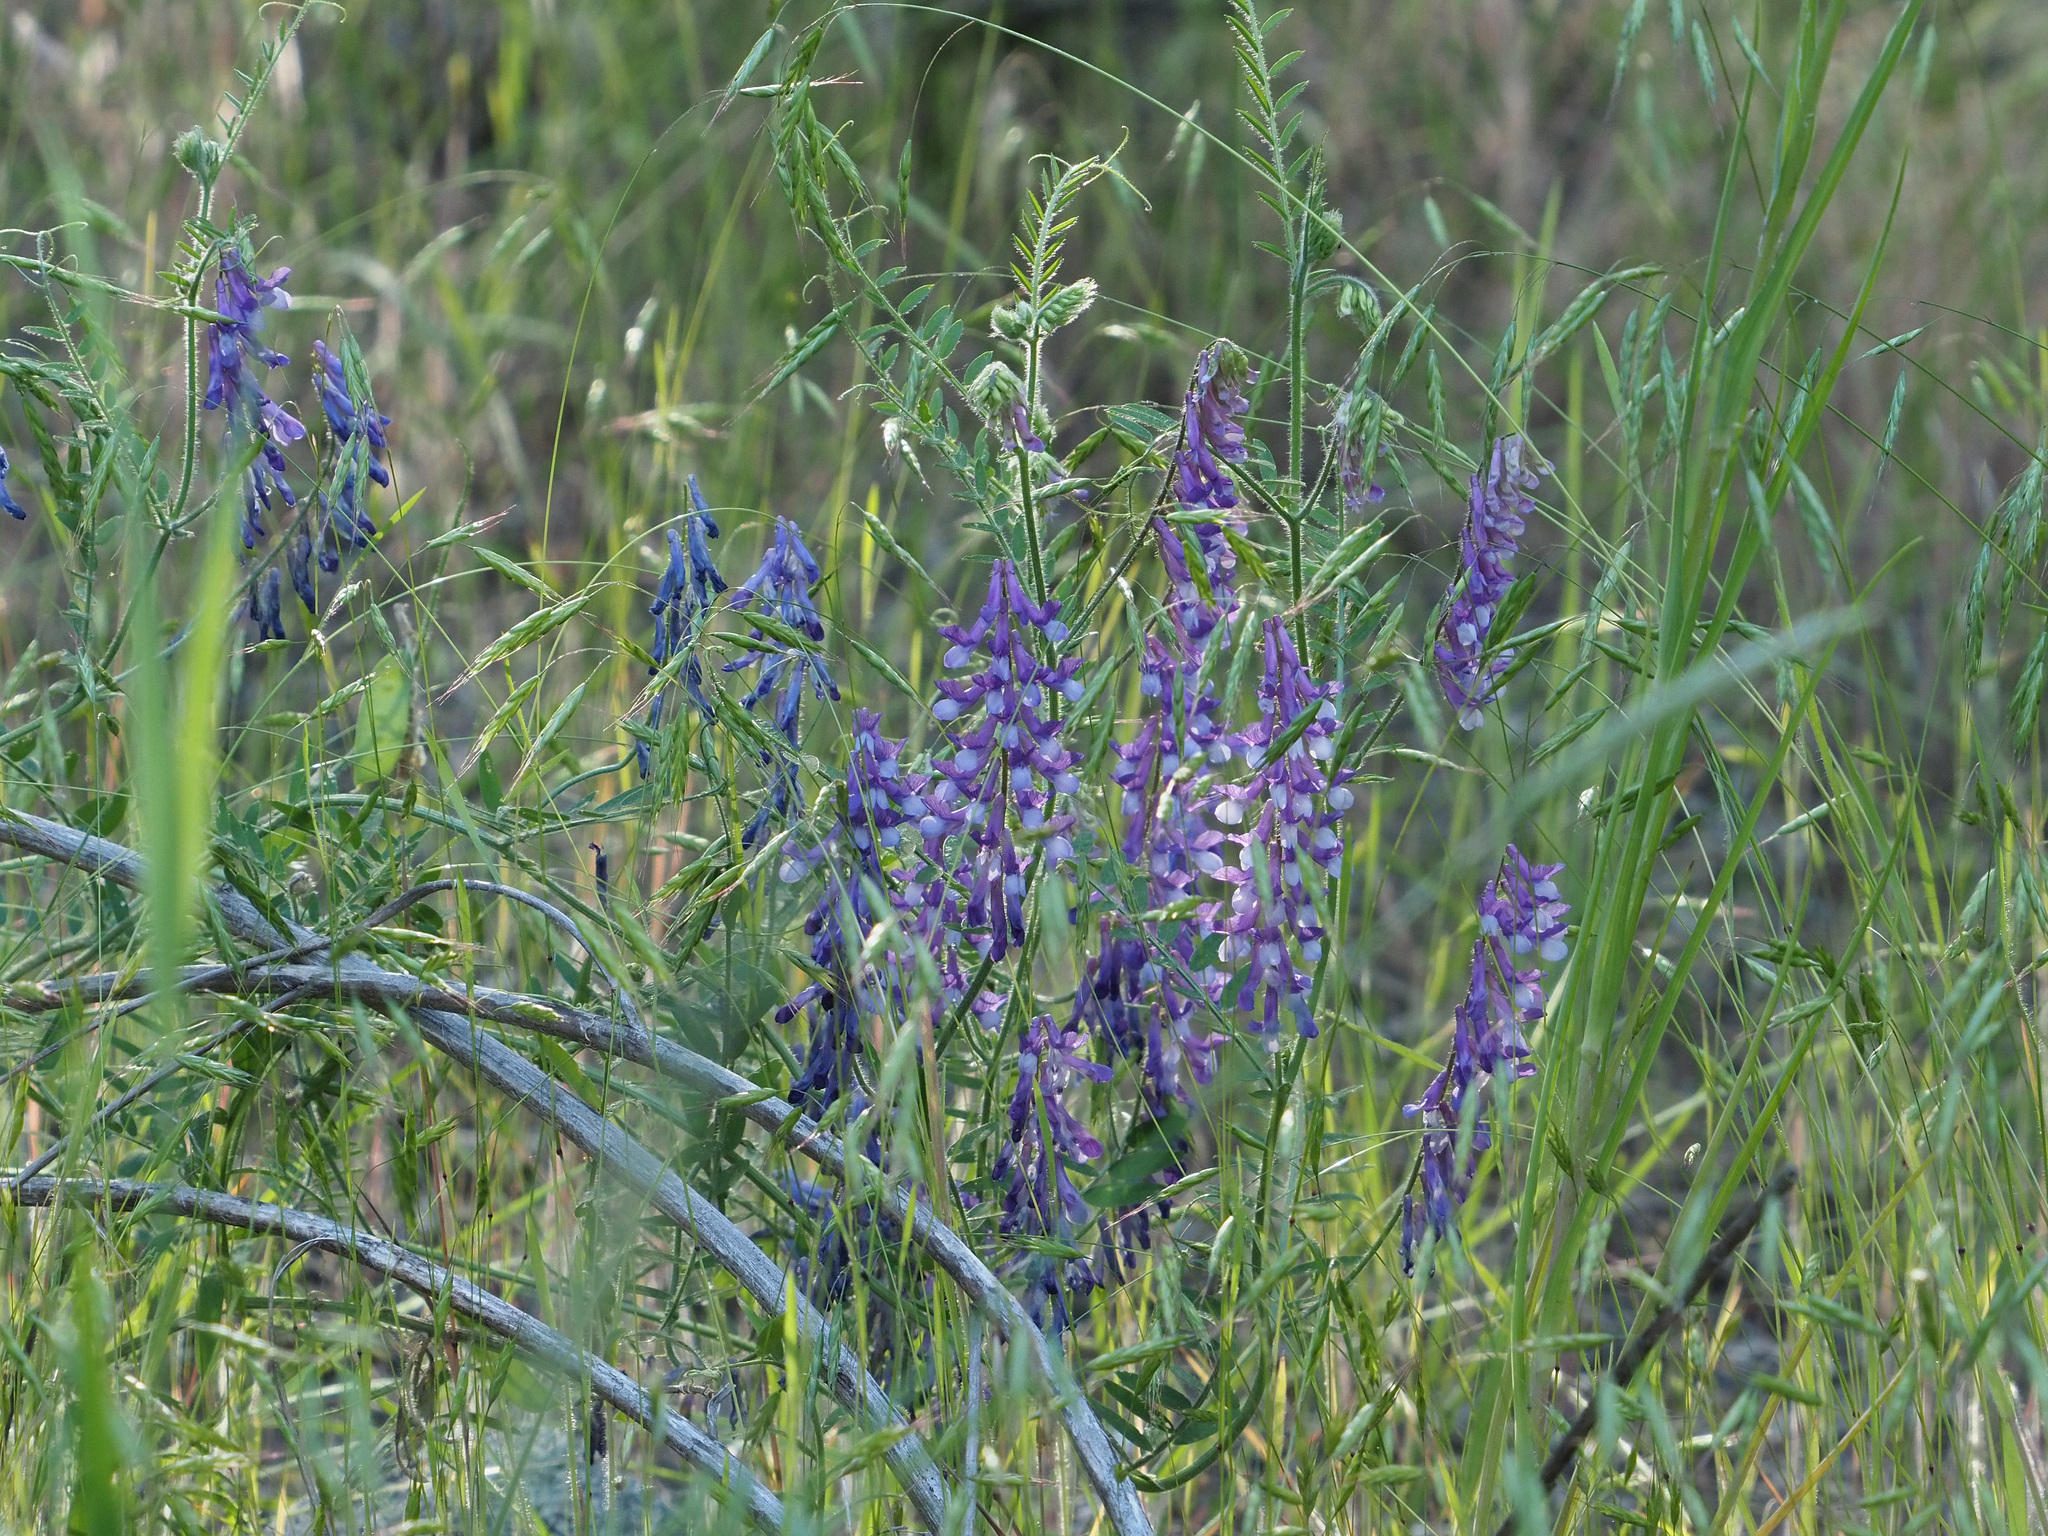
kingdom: Plantae
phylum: Tracheophyta
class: Magnoliopsida
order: Fabales
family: Fabaceae
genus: Vicia
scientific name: Vicia villosa
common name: Fodder vetch
